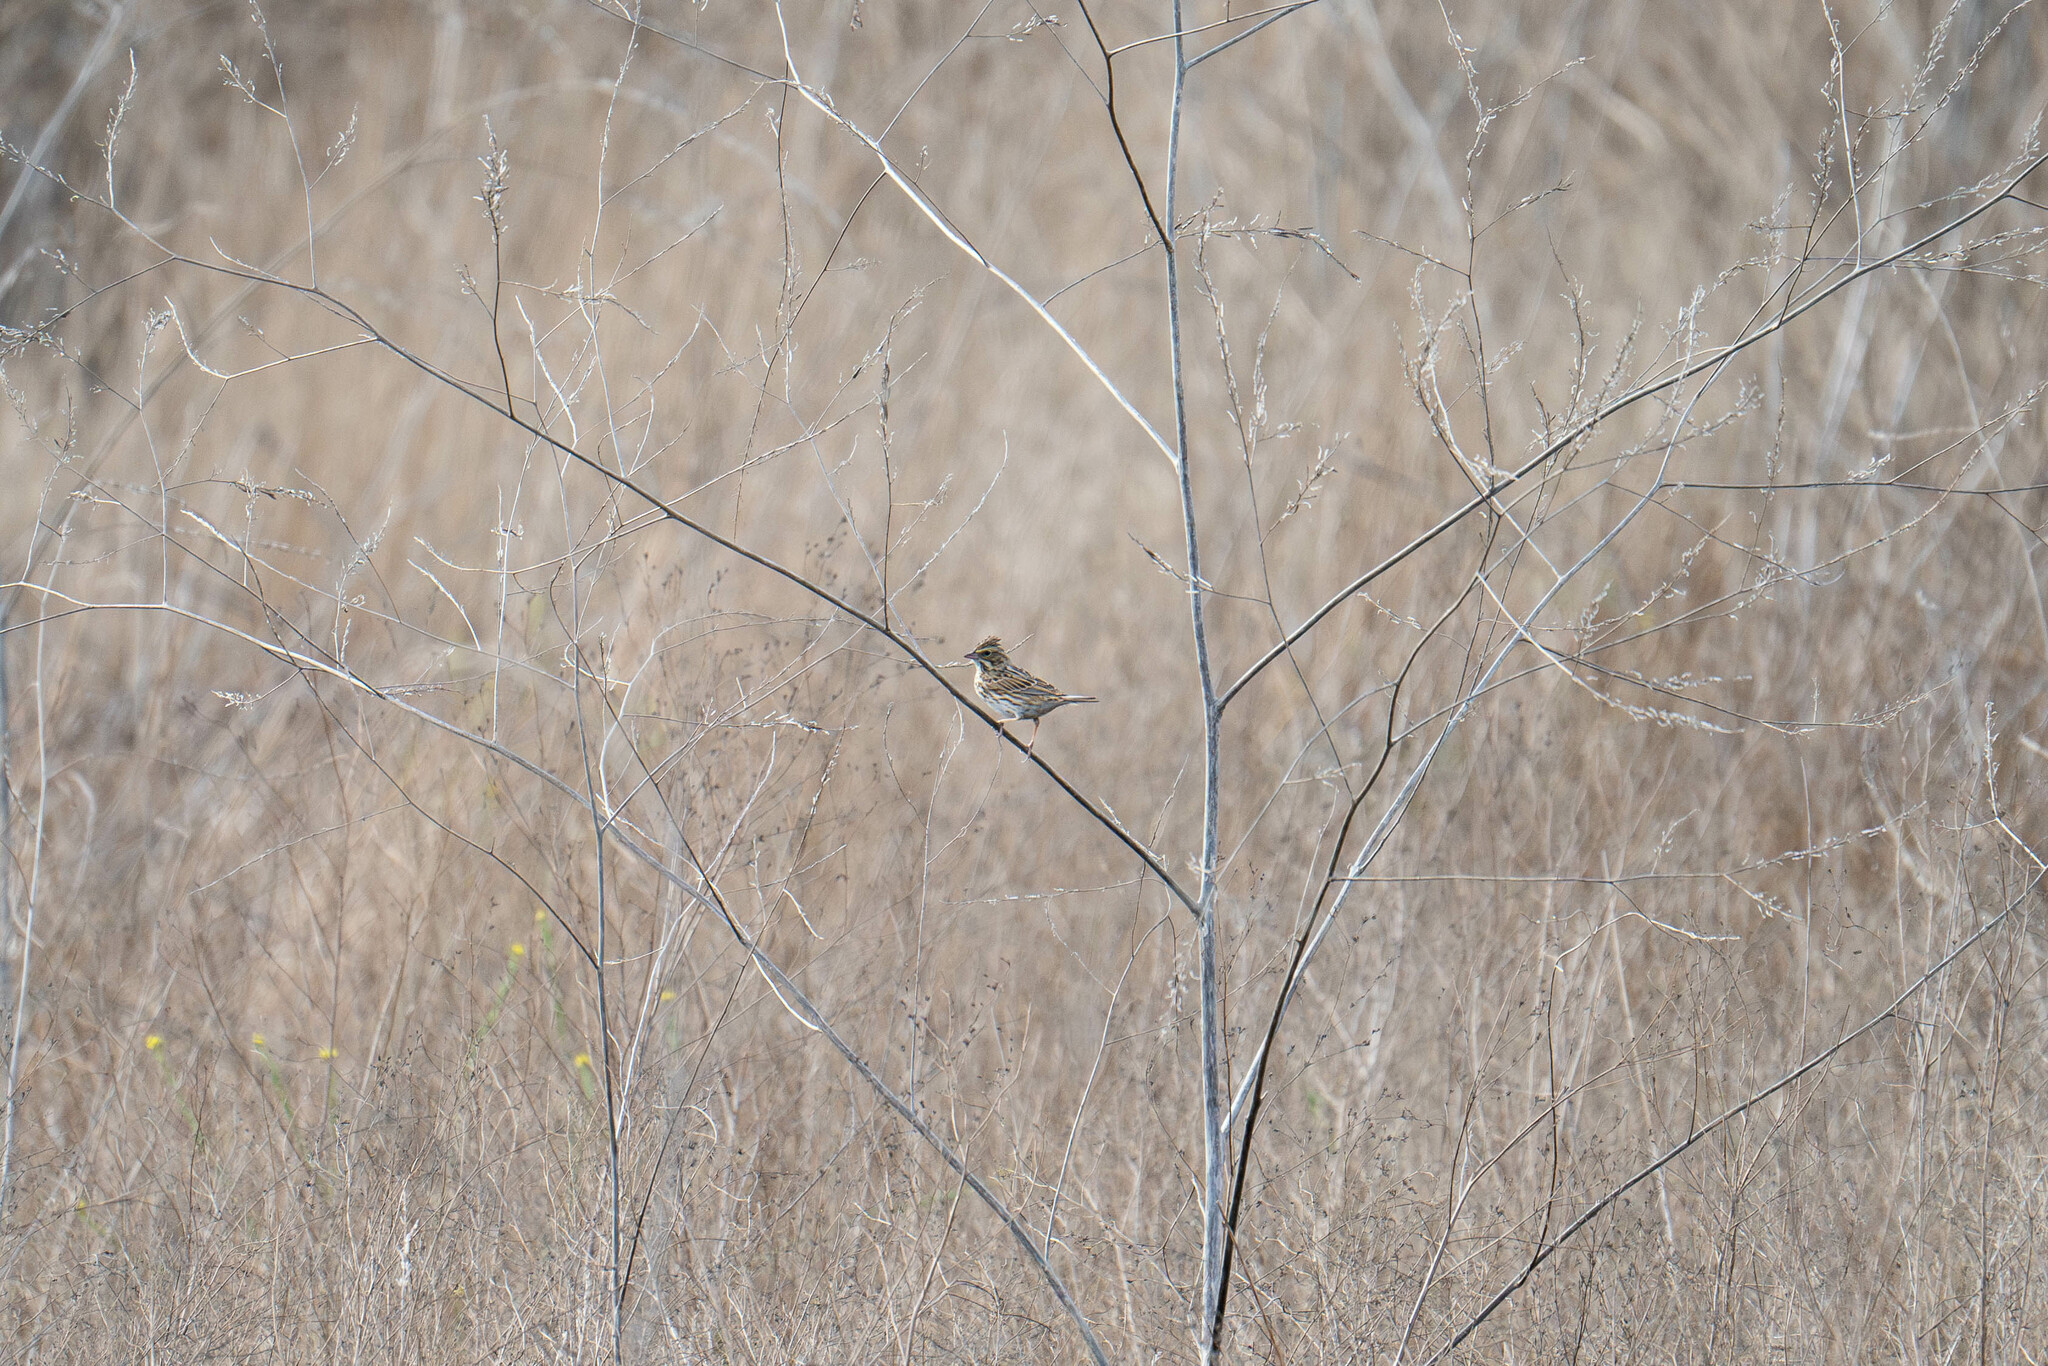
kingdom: Animalia
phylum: Chordata
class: Aves
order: Passeriformes
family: Passerellidae
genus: Passerculus
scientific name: Passerculus sandwichensis
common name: Savannah sparrow
